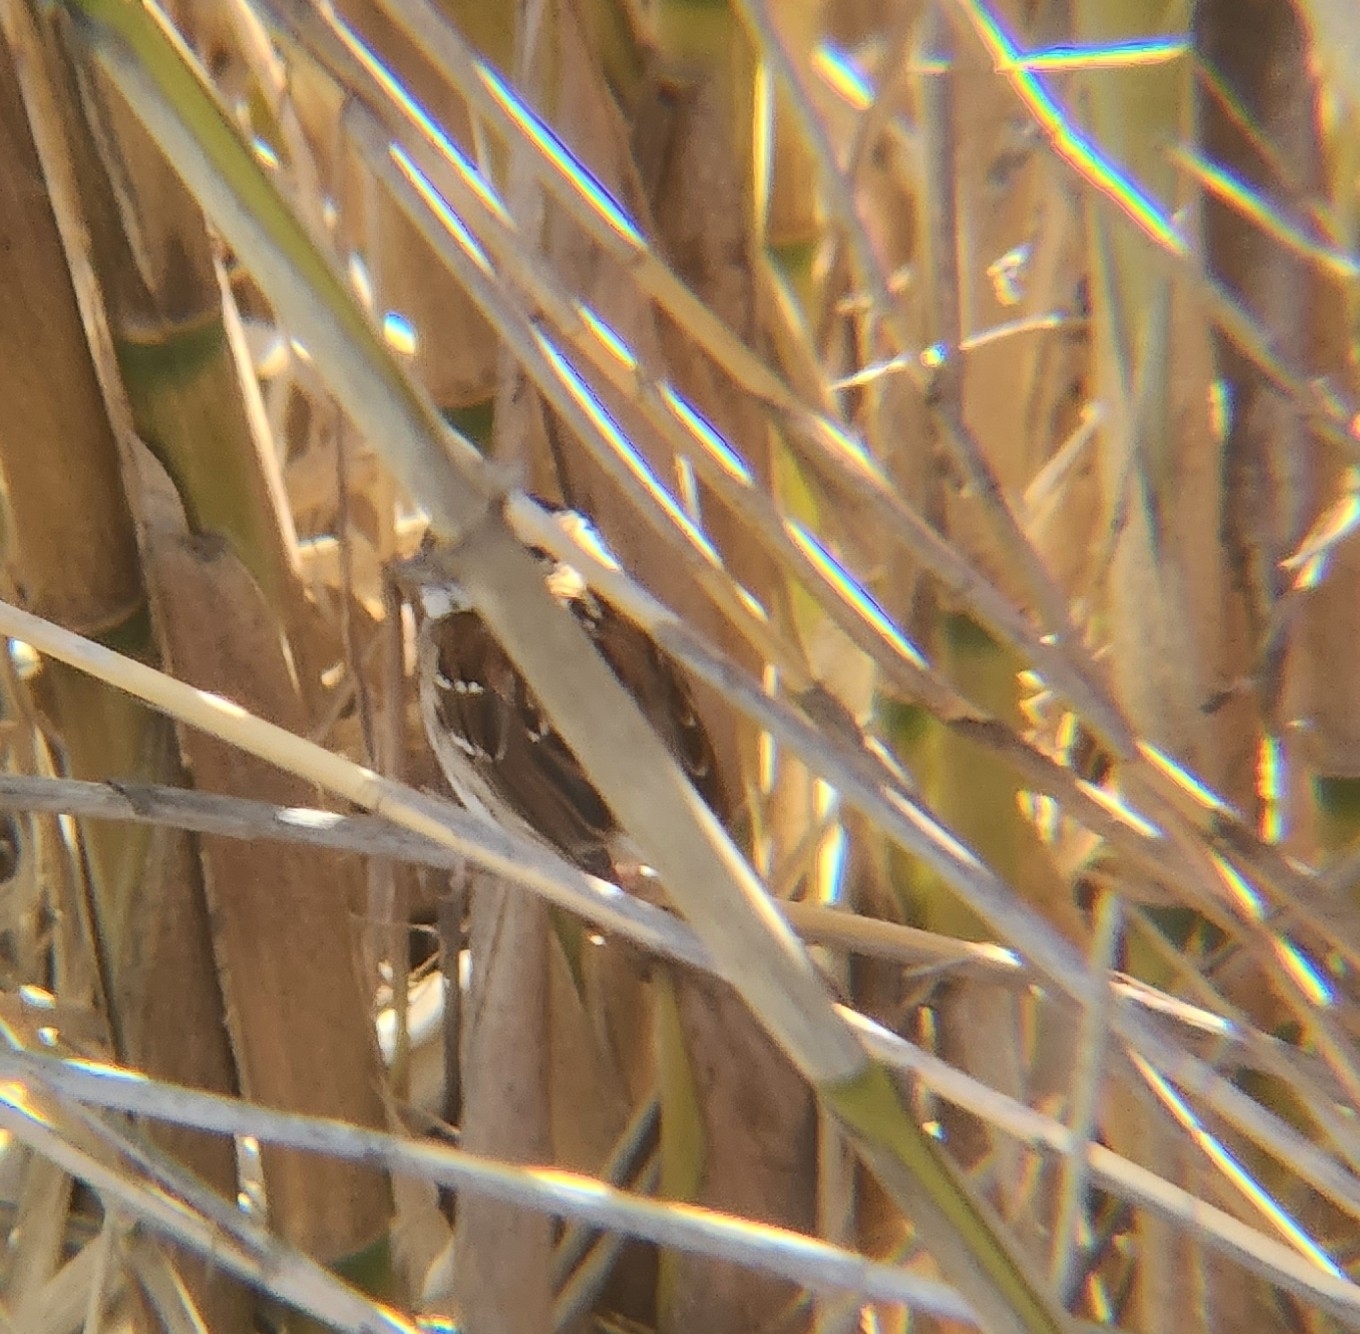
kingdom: Animalia
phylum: Chordata
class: Aves
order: Passeriformes
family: Passerellidae
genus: Zonotrichia
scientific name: Zonotrichia albicollis
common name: White-throated sparrow
